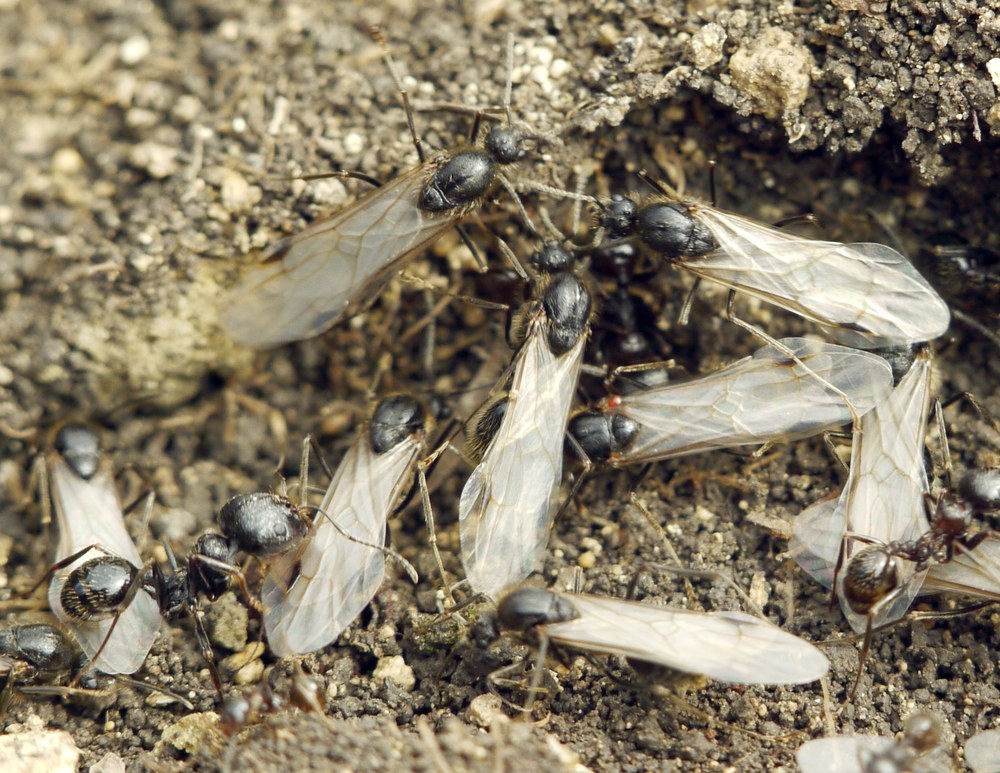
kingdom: Animalia
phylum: Arthropoda
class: Insecta
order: Hymenoptera
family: Formicidae
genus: Messor
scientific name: Messor structor
